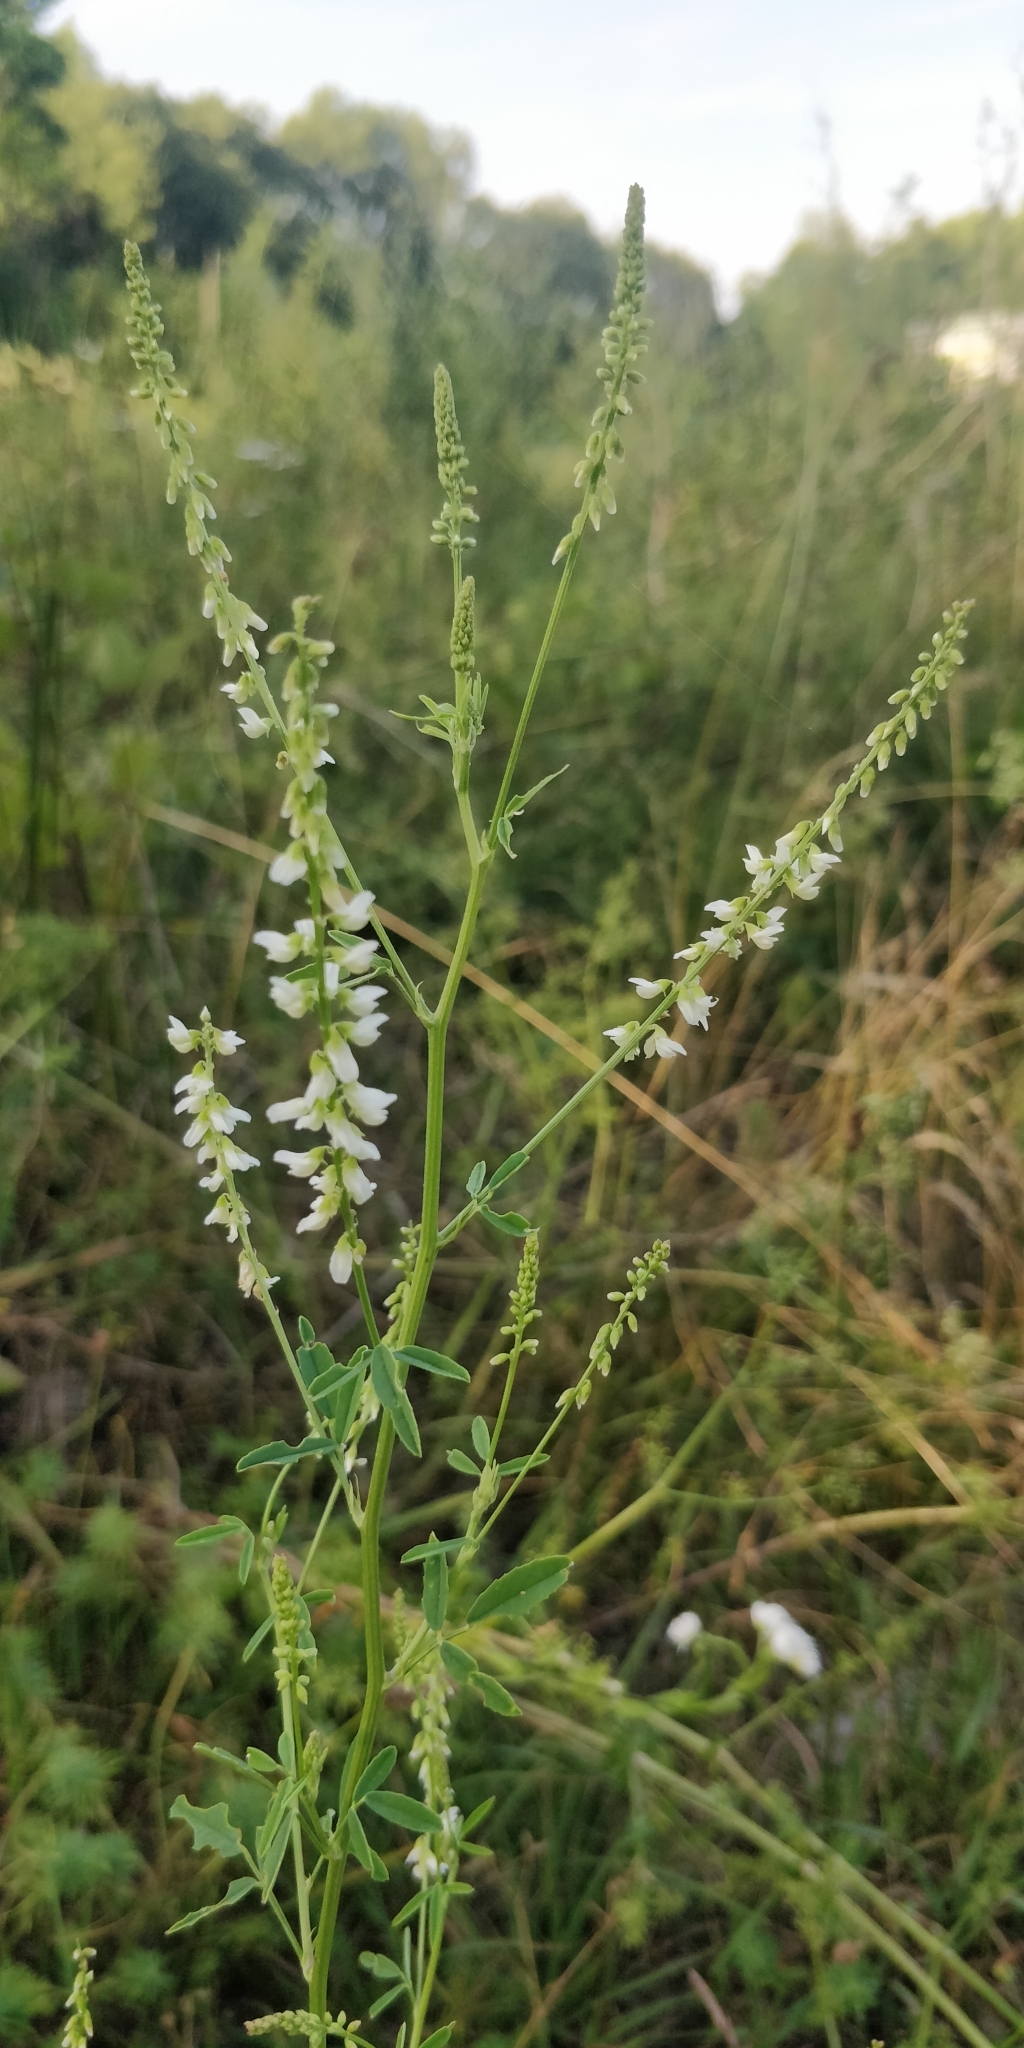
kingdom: Plantae
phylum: Tracheophyta
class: Magnoliopsida
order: Fabales
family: Fabaceae
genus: Melilotus
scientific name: Melilotus albus
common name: White melilot
